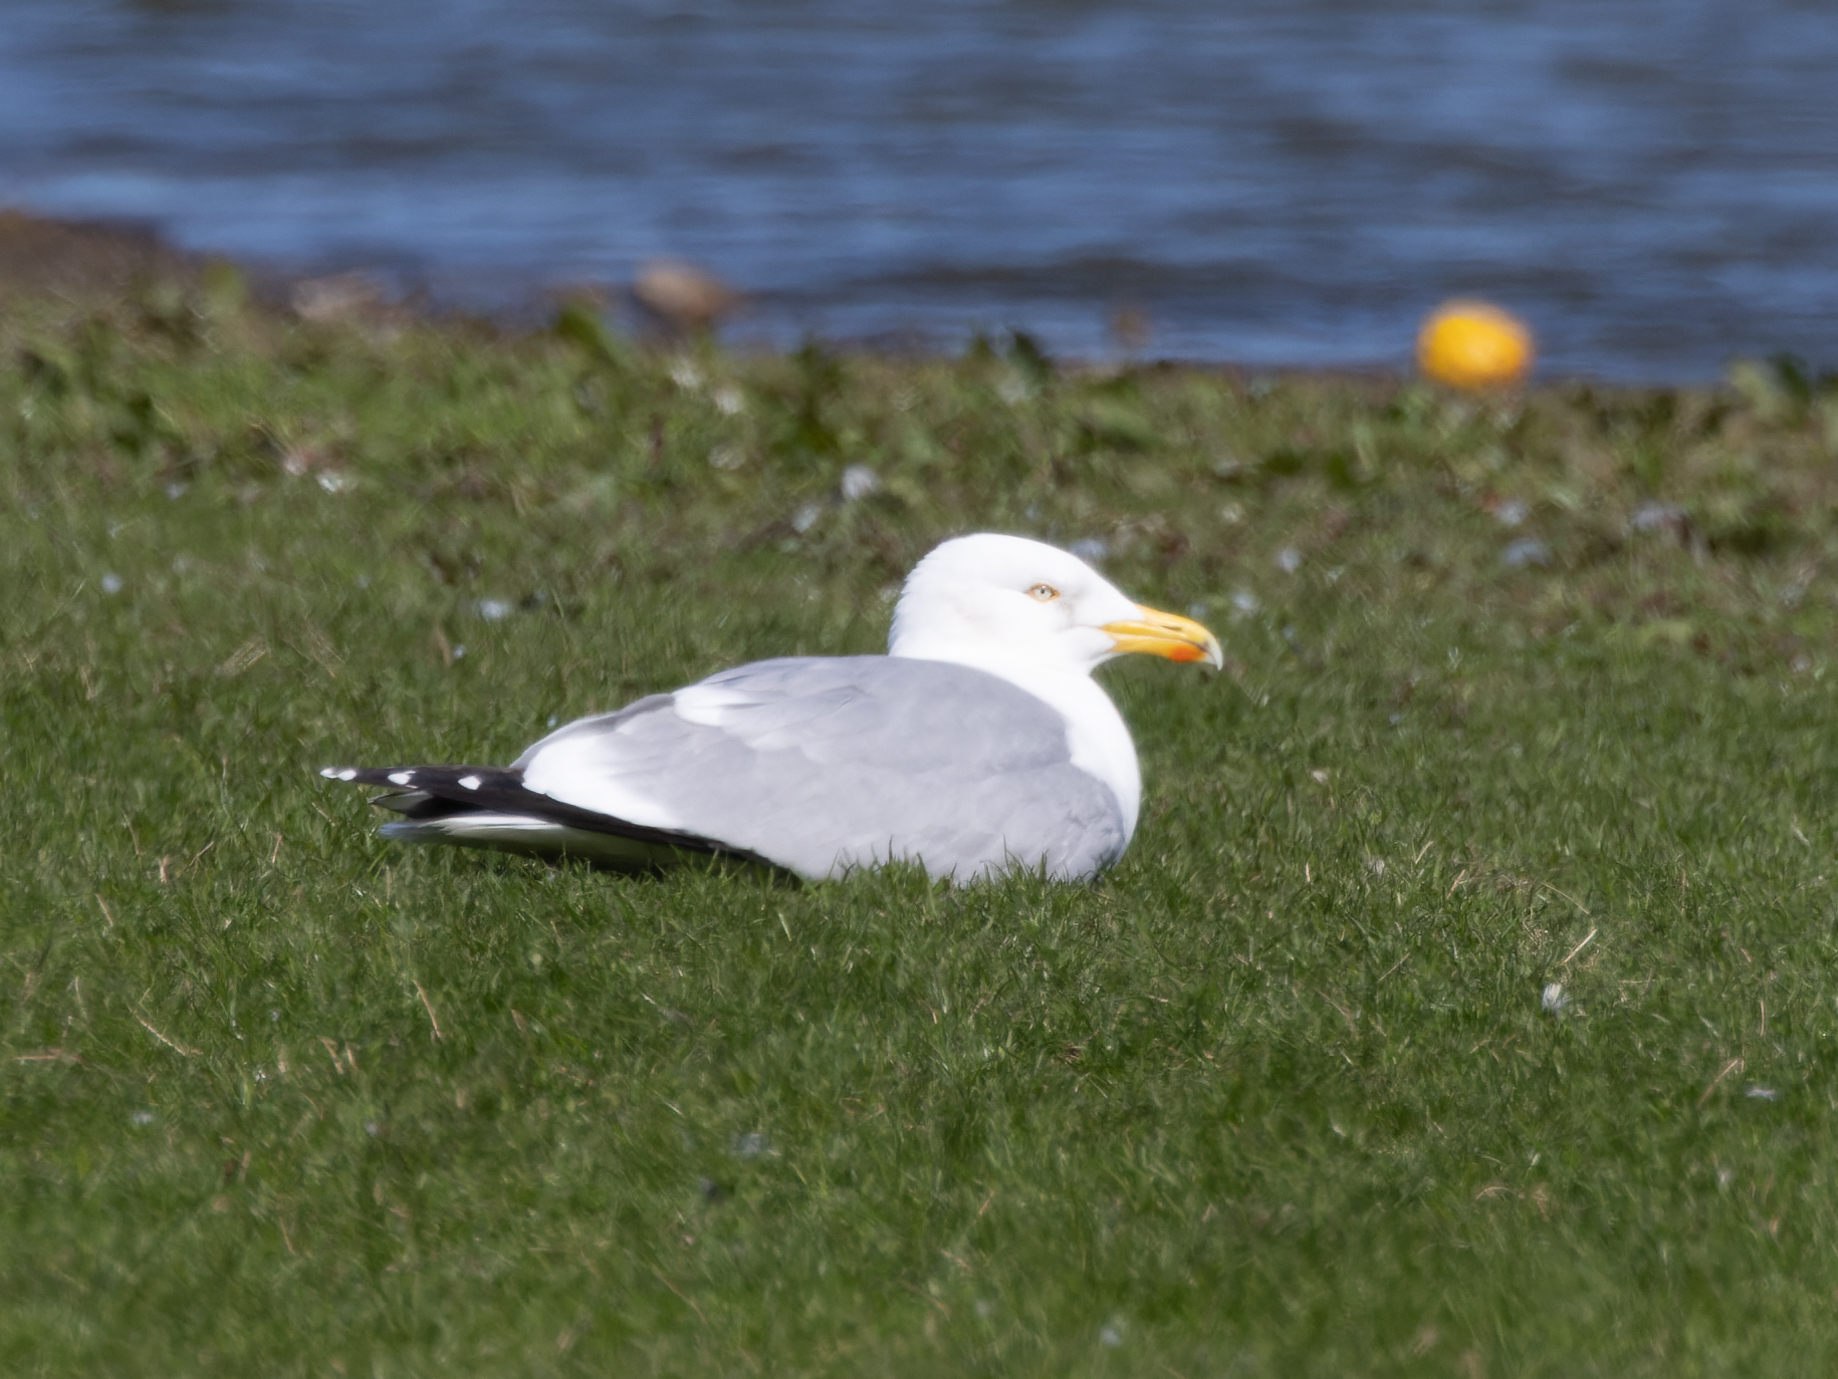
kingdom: Animalia
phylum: Chordata
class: Aves
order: Charadriiformes
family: Laridae
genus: Larus
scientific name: Larus argentatus
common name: Herring gull
